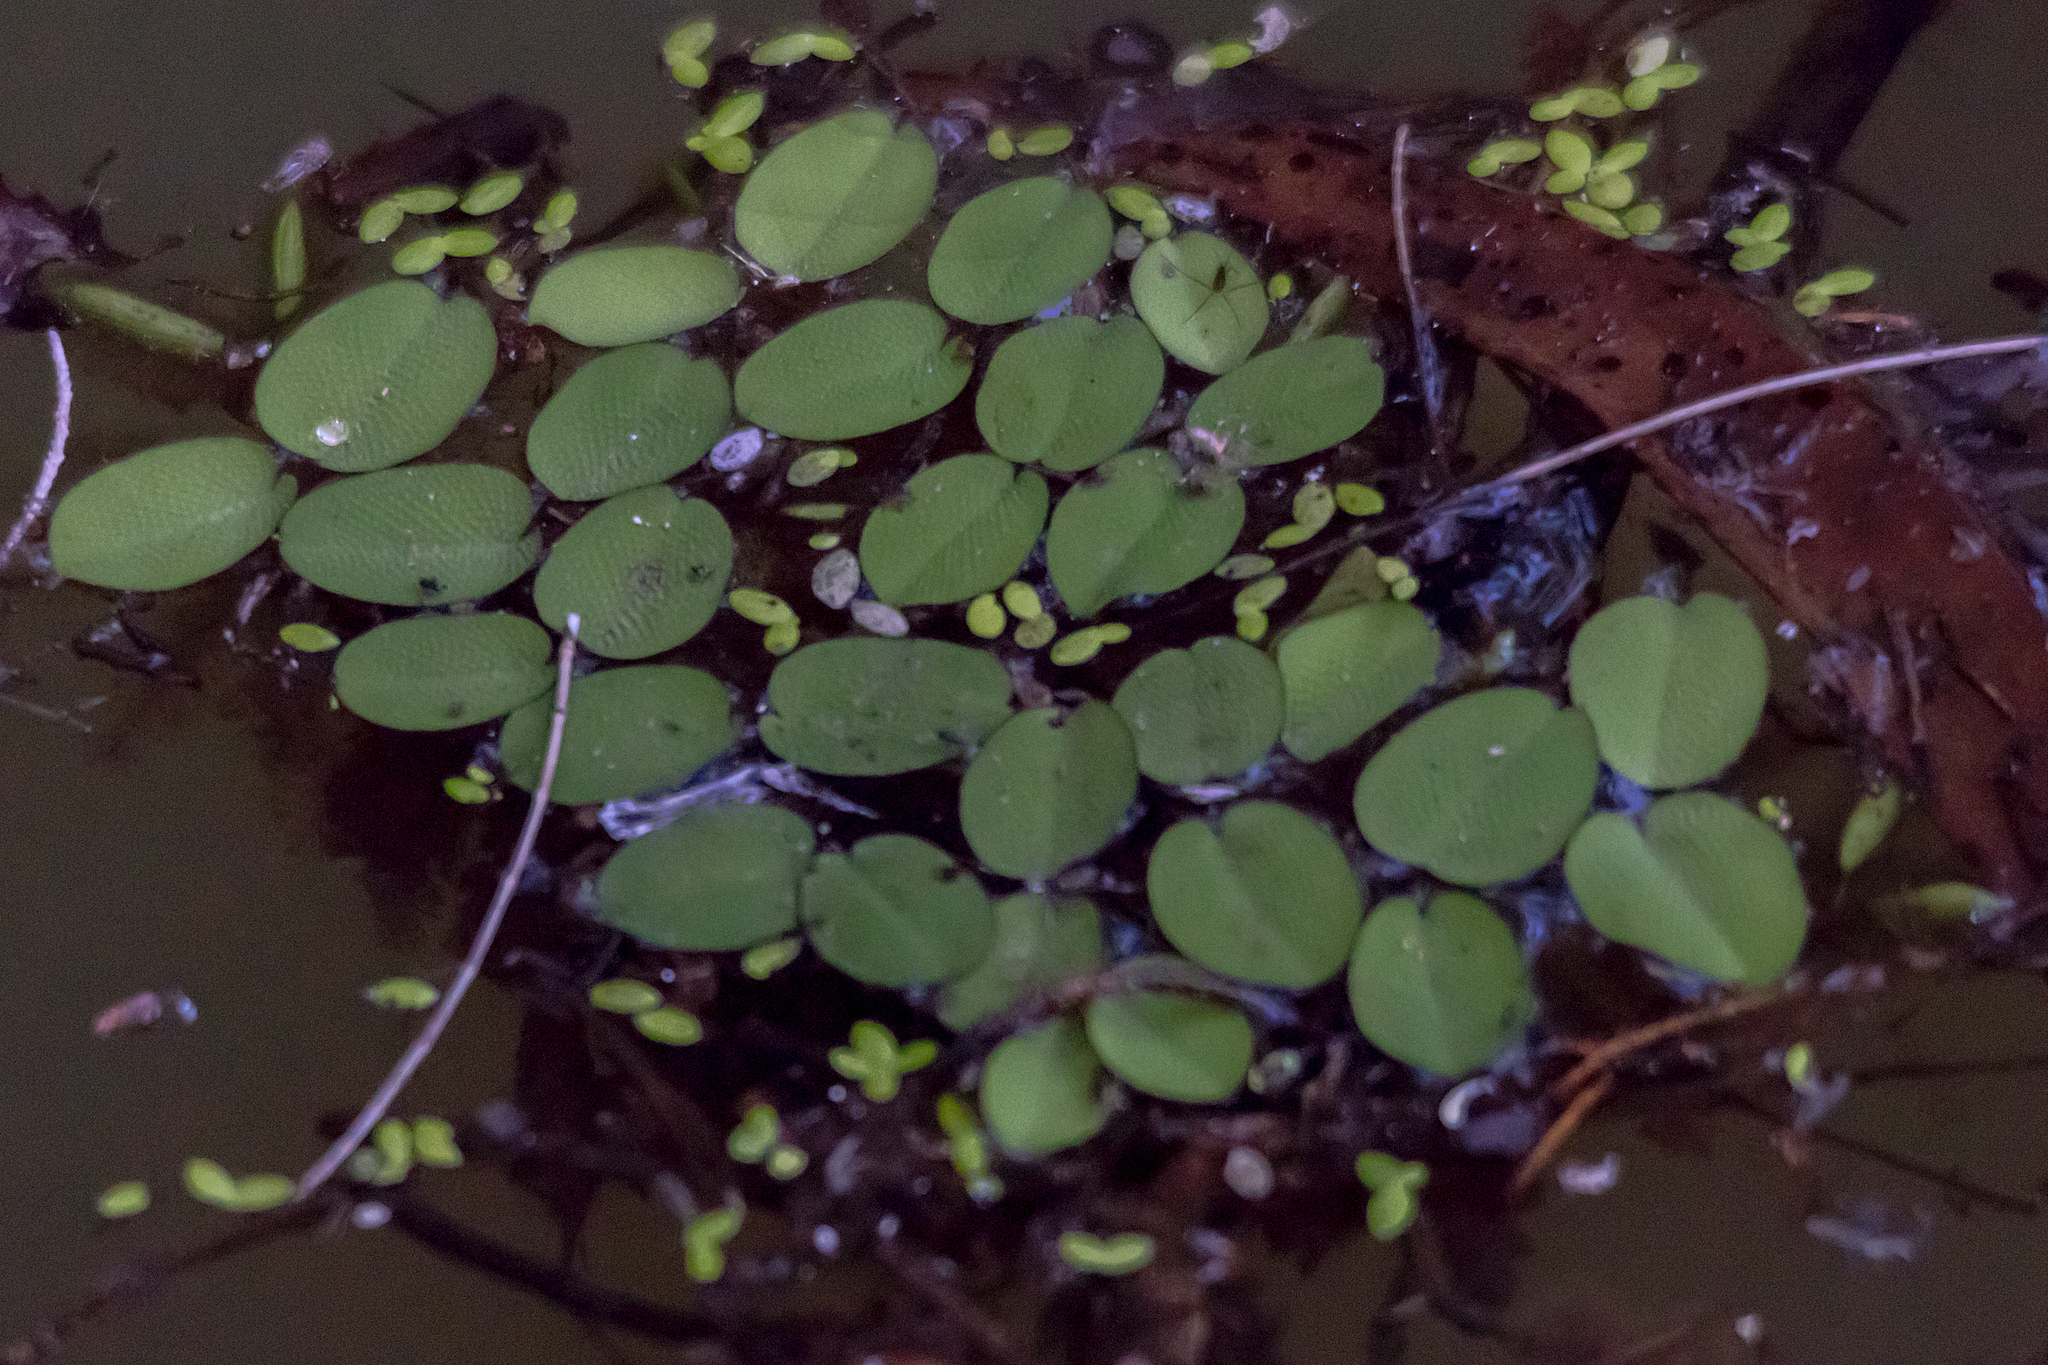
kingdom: Plantae
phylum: Tracheophyta
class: Polypodiopsida
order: Salviniales
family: Salviniaceae
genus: Salvinia
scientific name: Salvinia molesta
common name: Kariba weed
